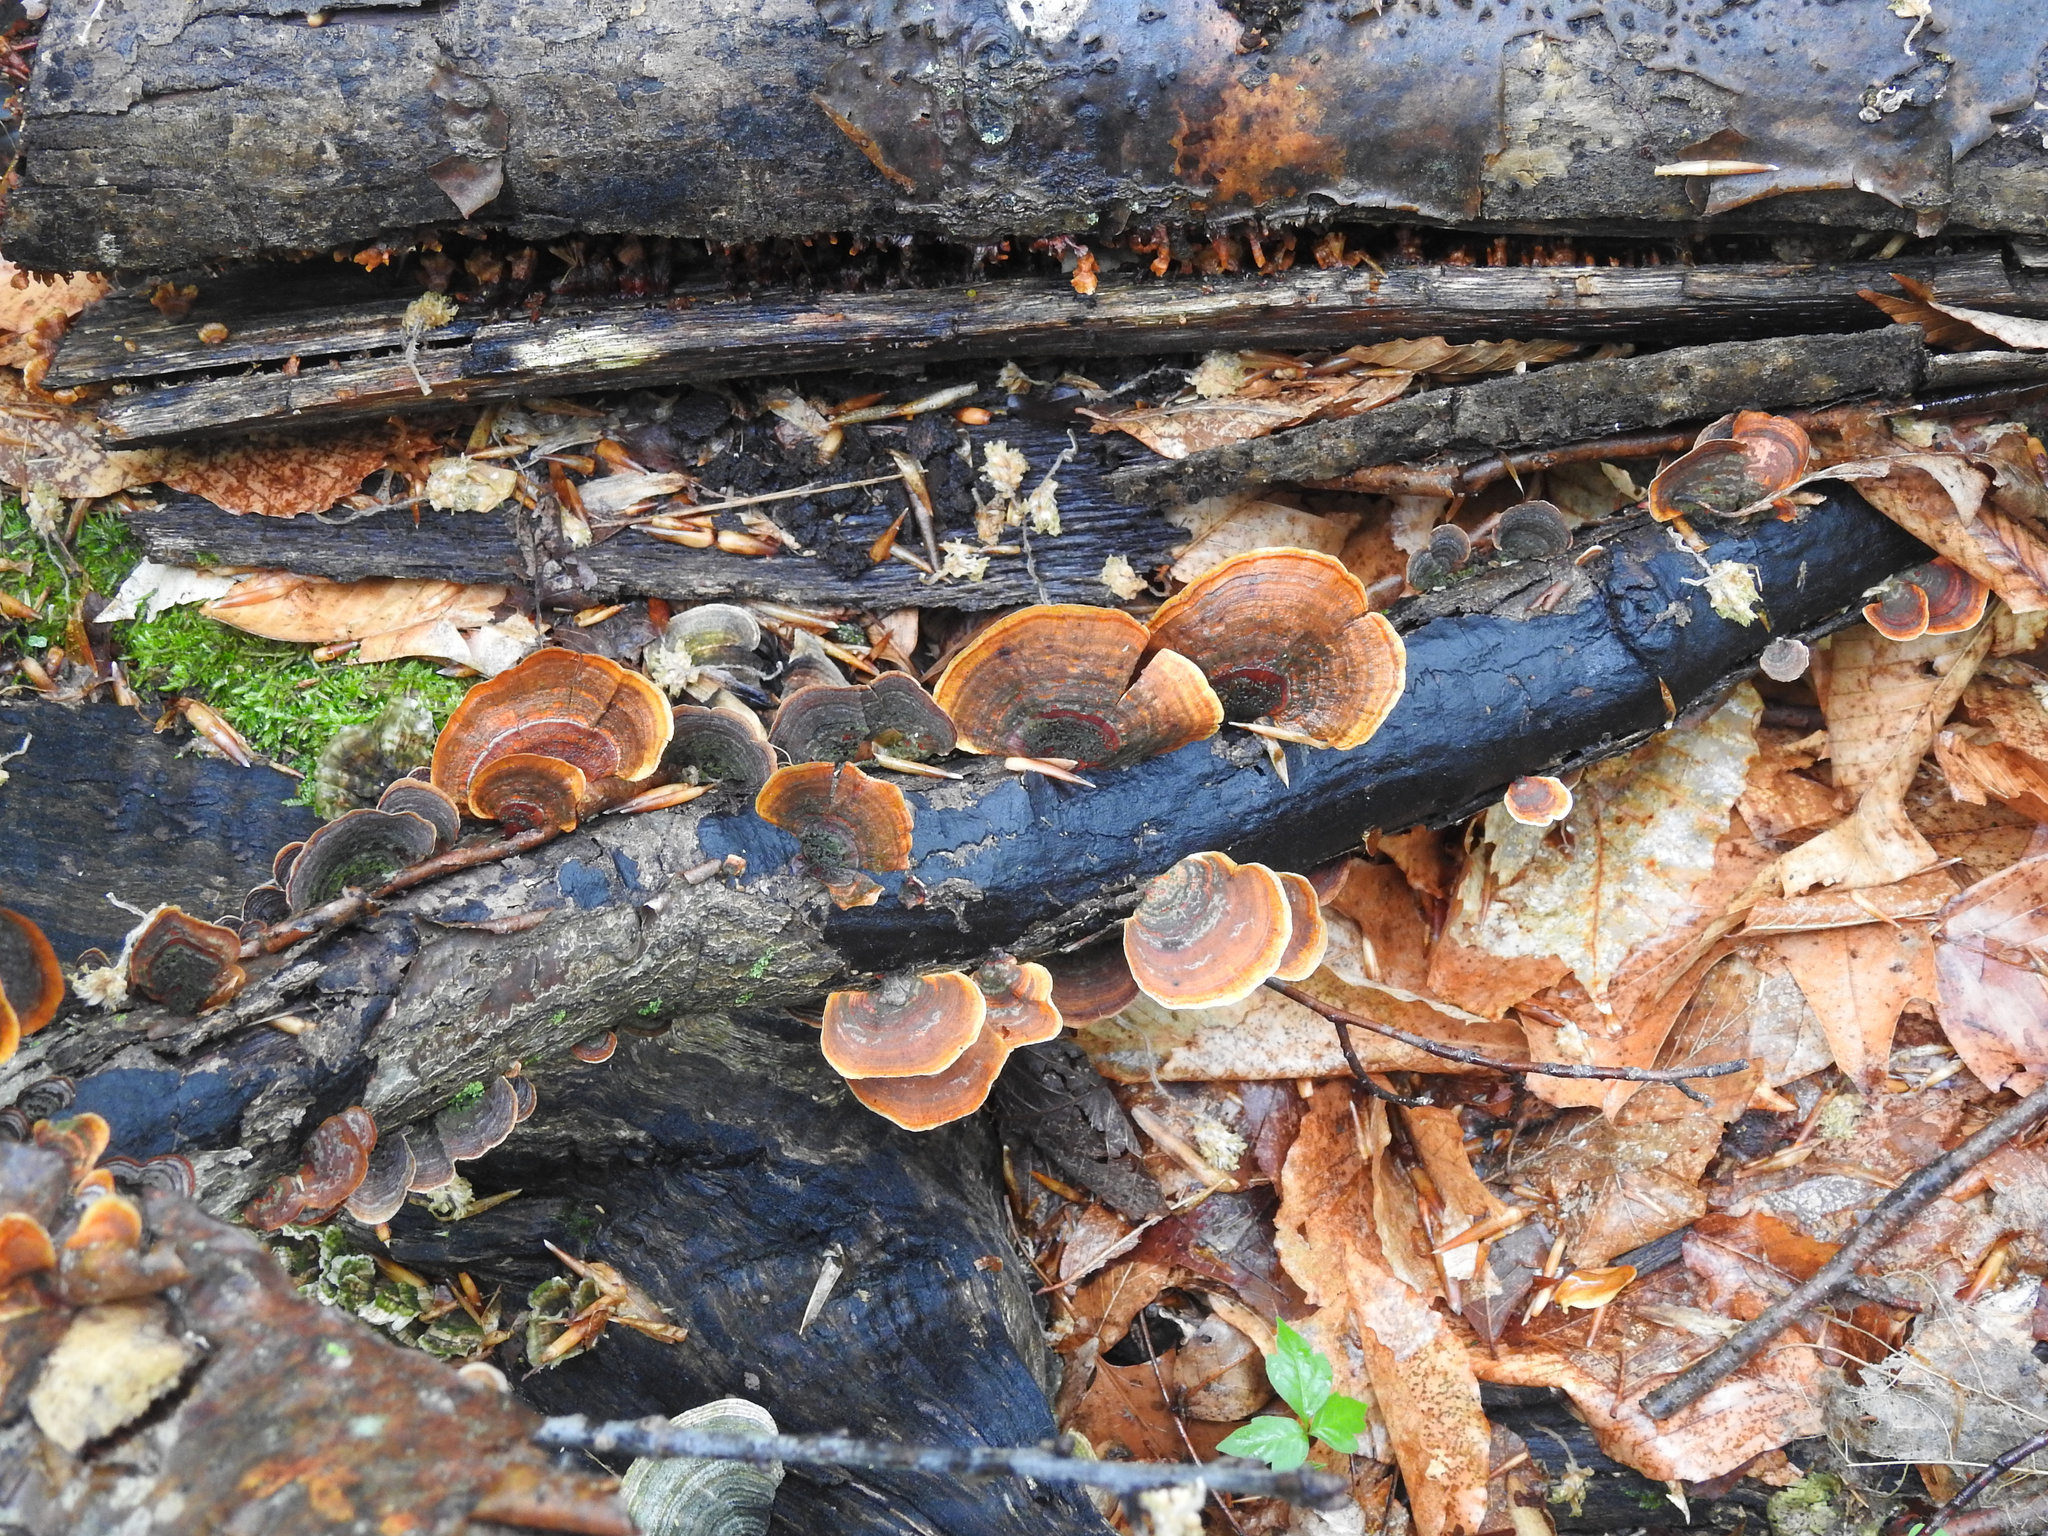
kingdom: Fungi
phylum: Basidiomycota
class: Agaricomycetes
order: Russulales
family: Stereaceae
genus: Stereum
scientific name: Stereum ostrea
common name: False turkeytail
